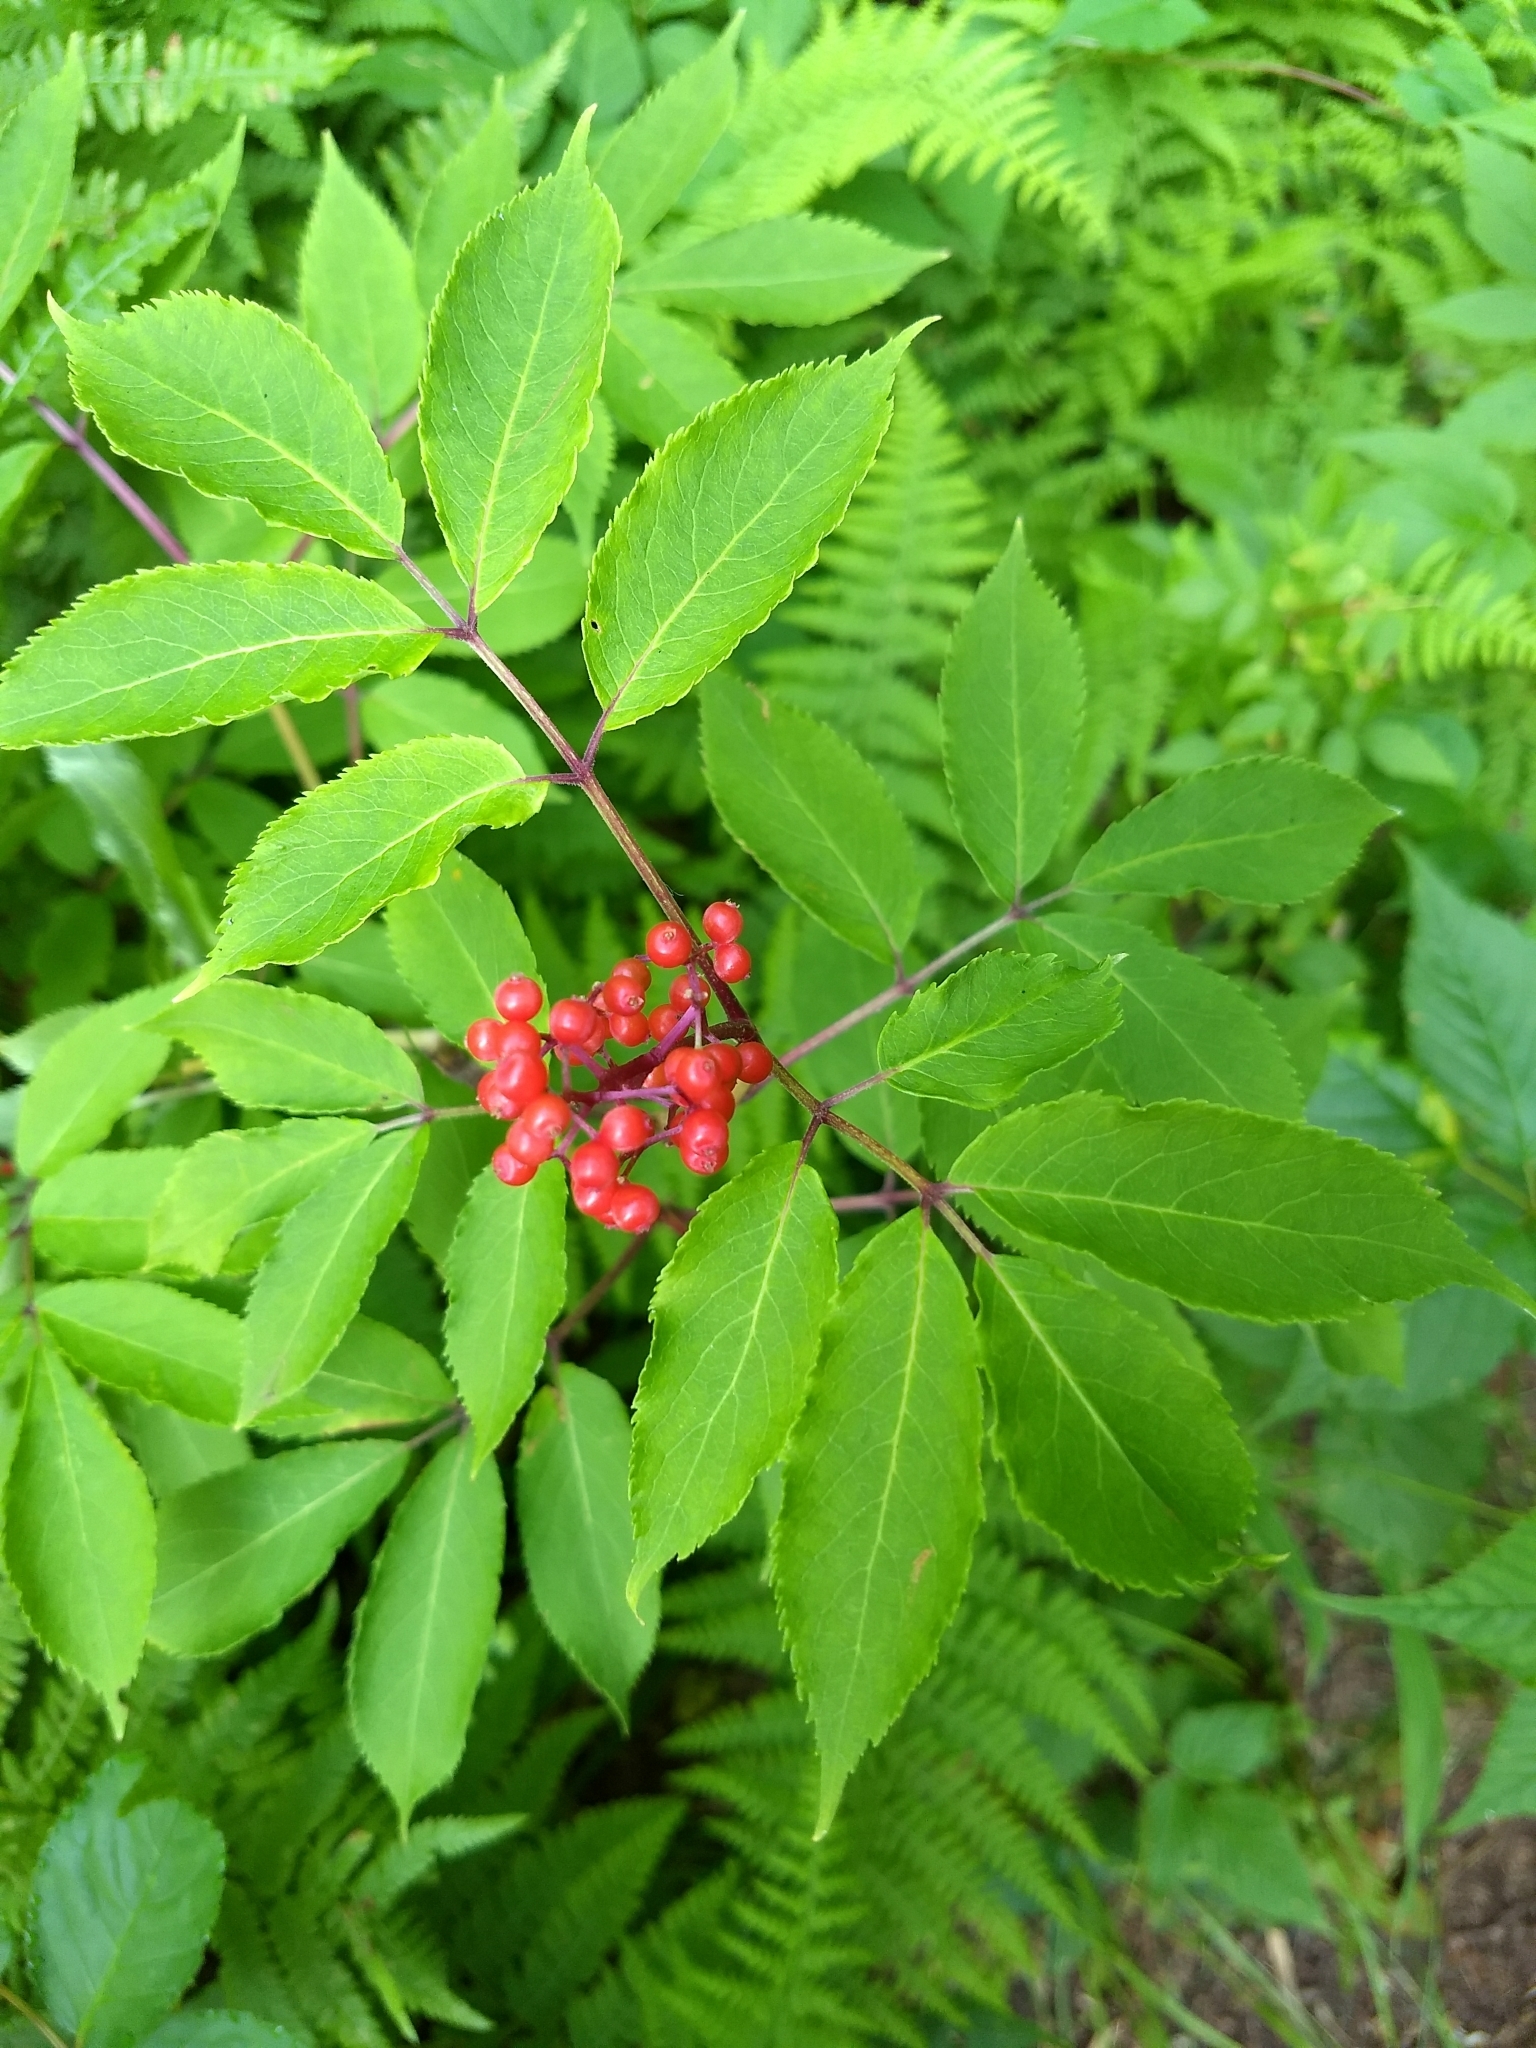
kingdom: Plantae
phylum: Tracheophyta
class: Magnoliopsida
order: Dipsacales
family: Viburnaceae
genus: Sambucus
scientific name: Sambucus racemosa
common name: Red-berried elder
